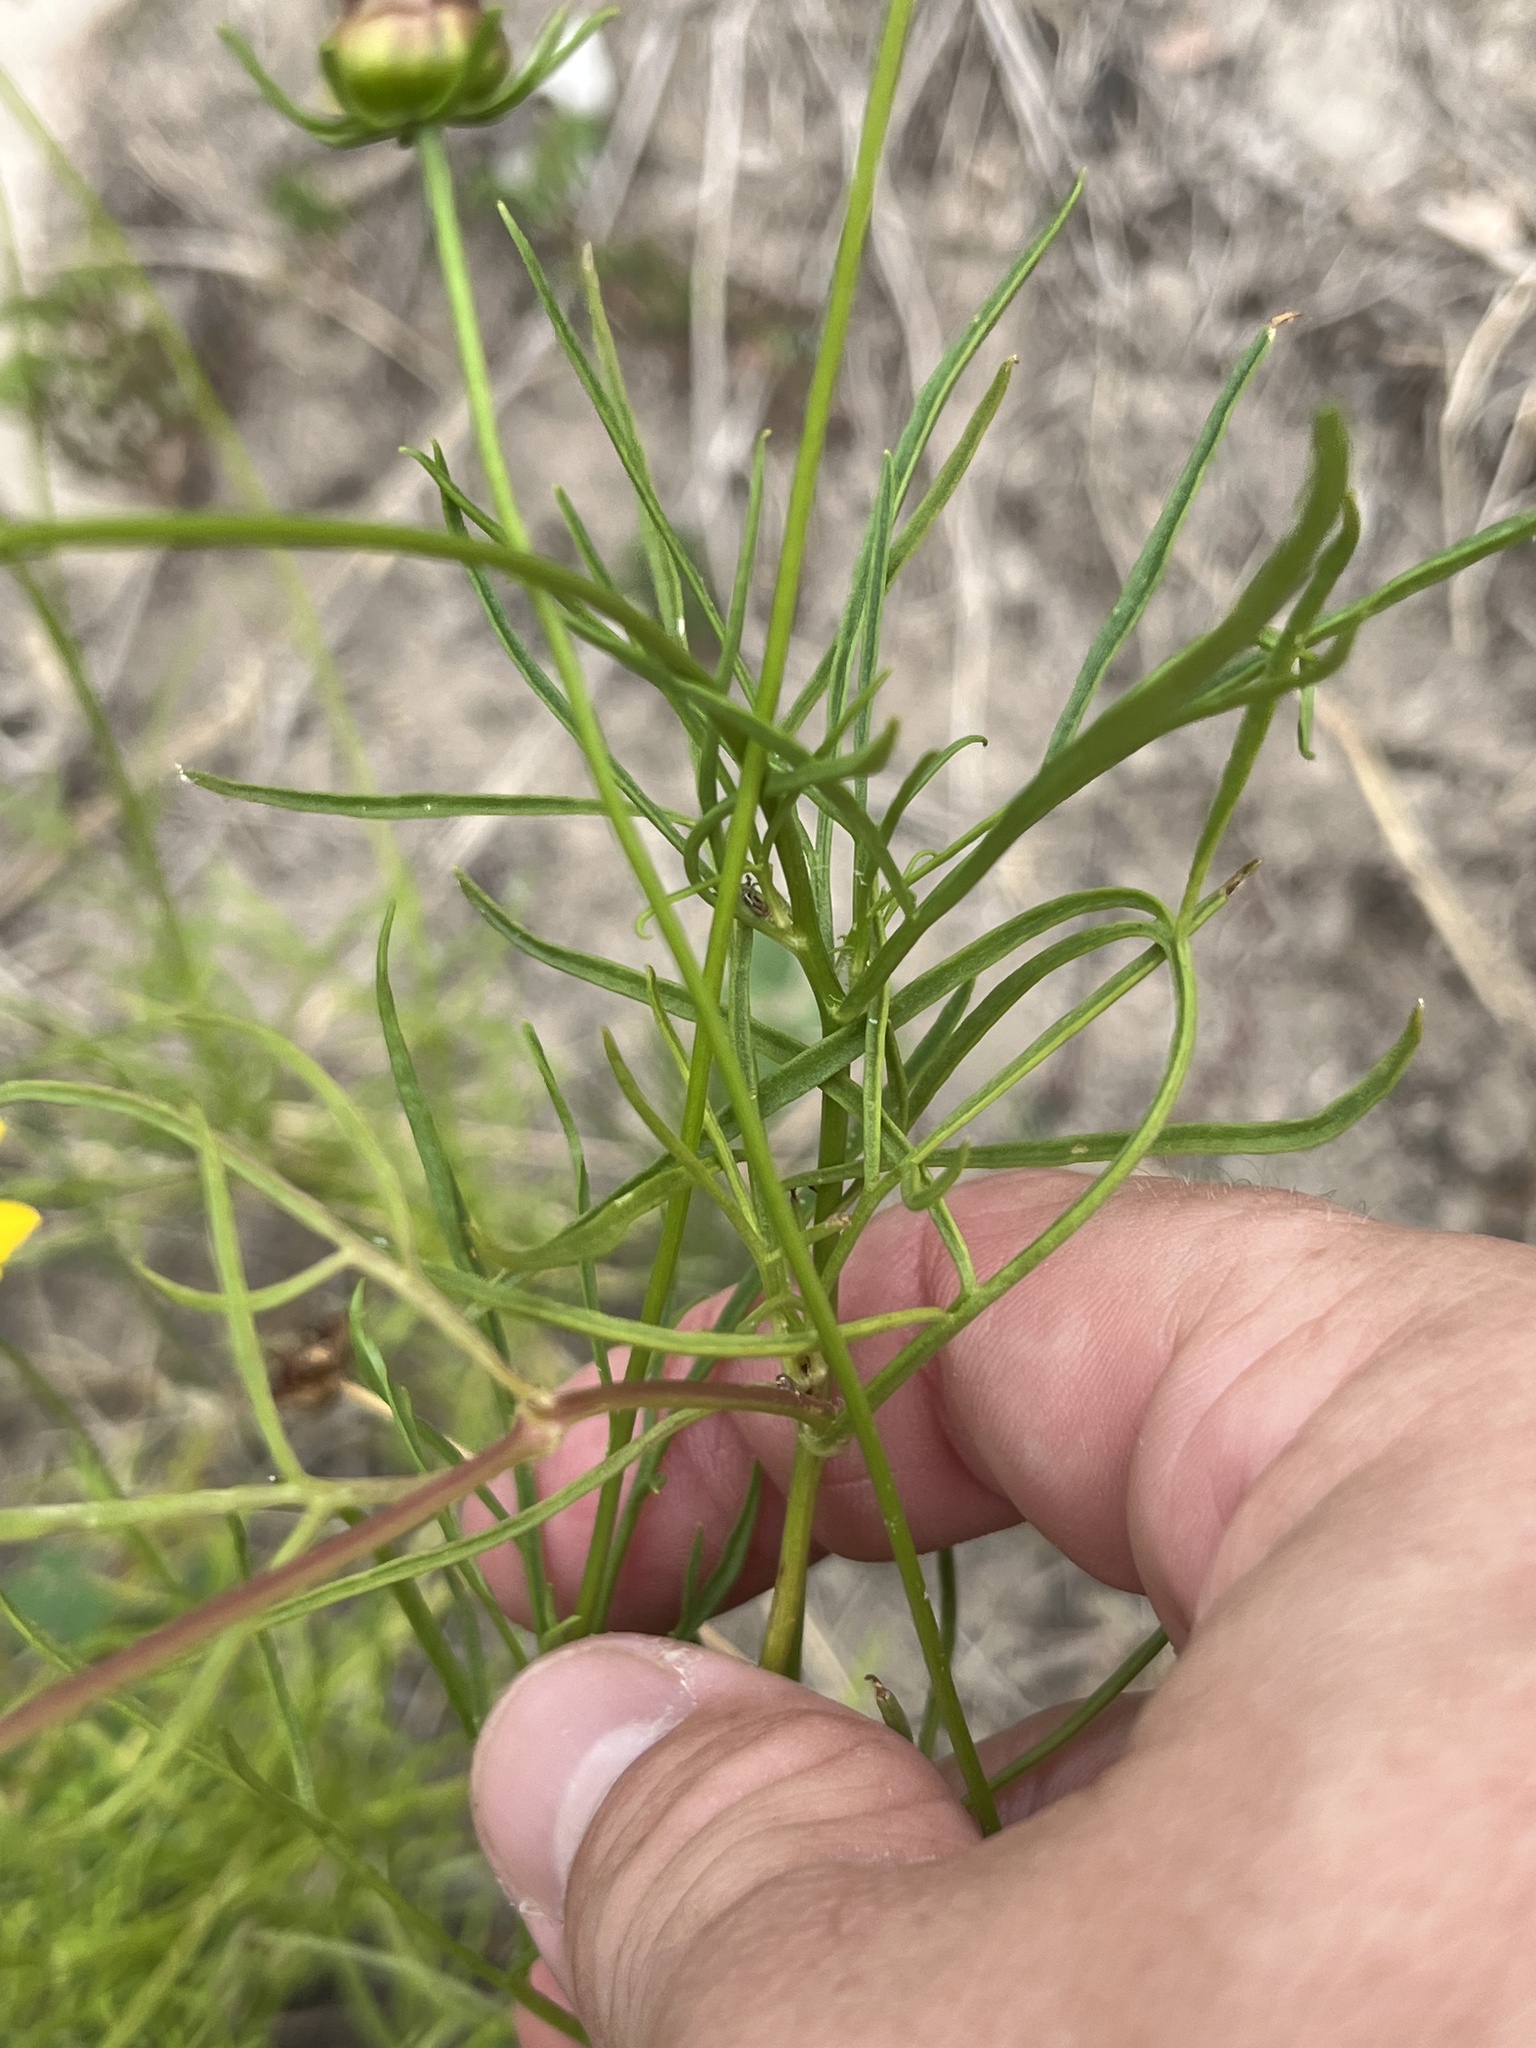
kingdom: Plantae
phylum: Tracheophyta
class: Magnoliopsida
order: Asterales
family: Asteraceae
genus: Coreopsis
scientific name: Coreopsis basalis
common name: Golden-mane coreopsis
